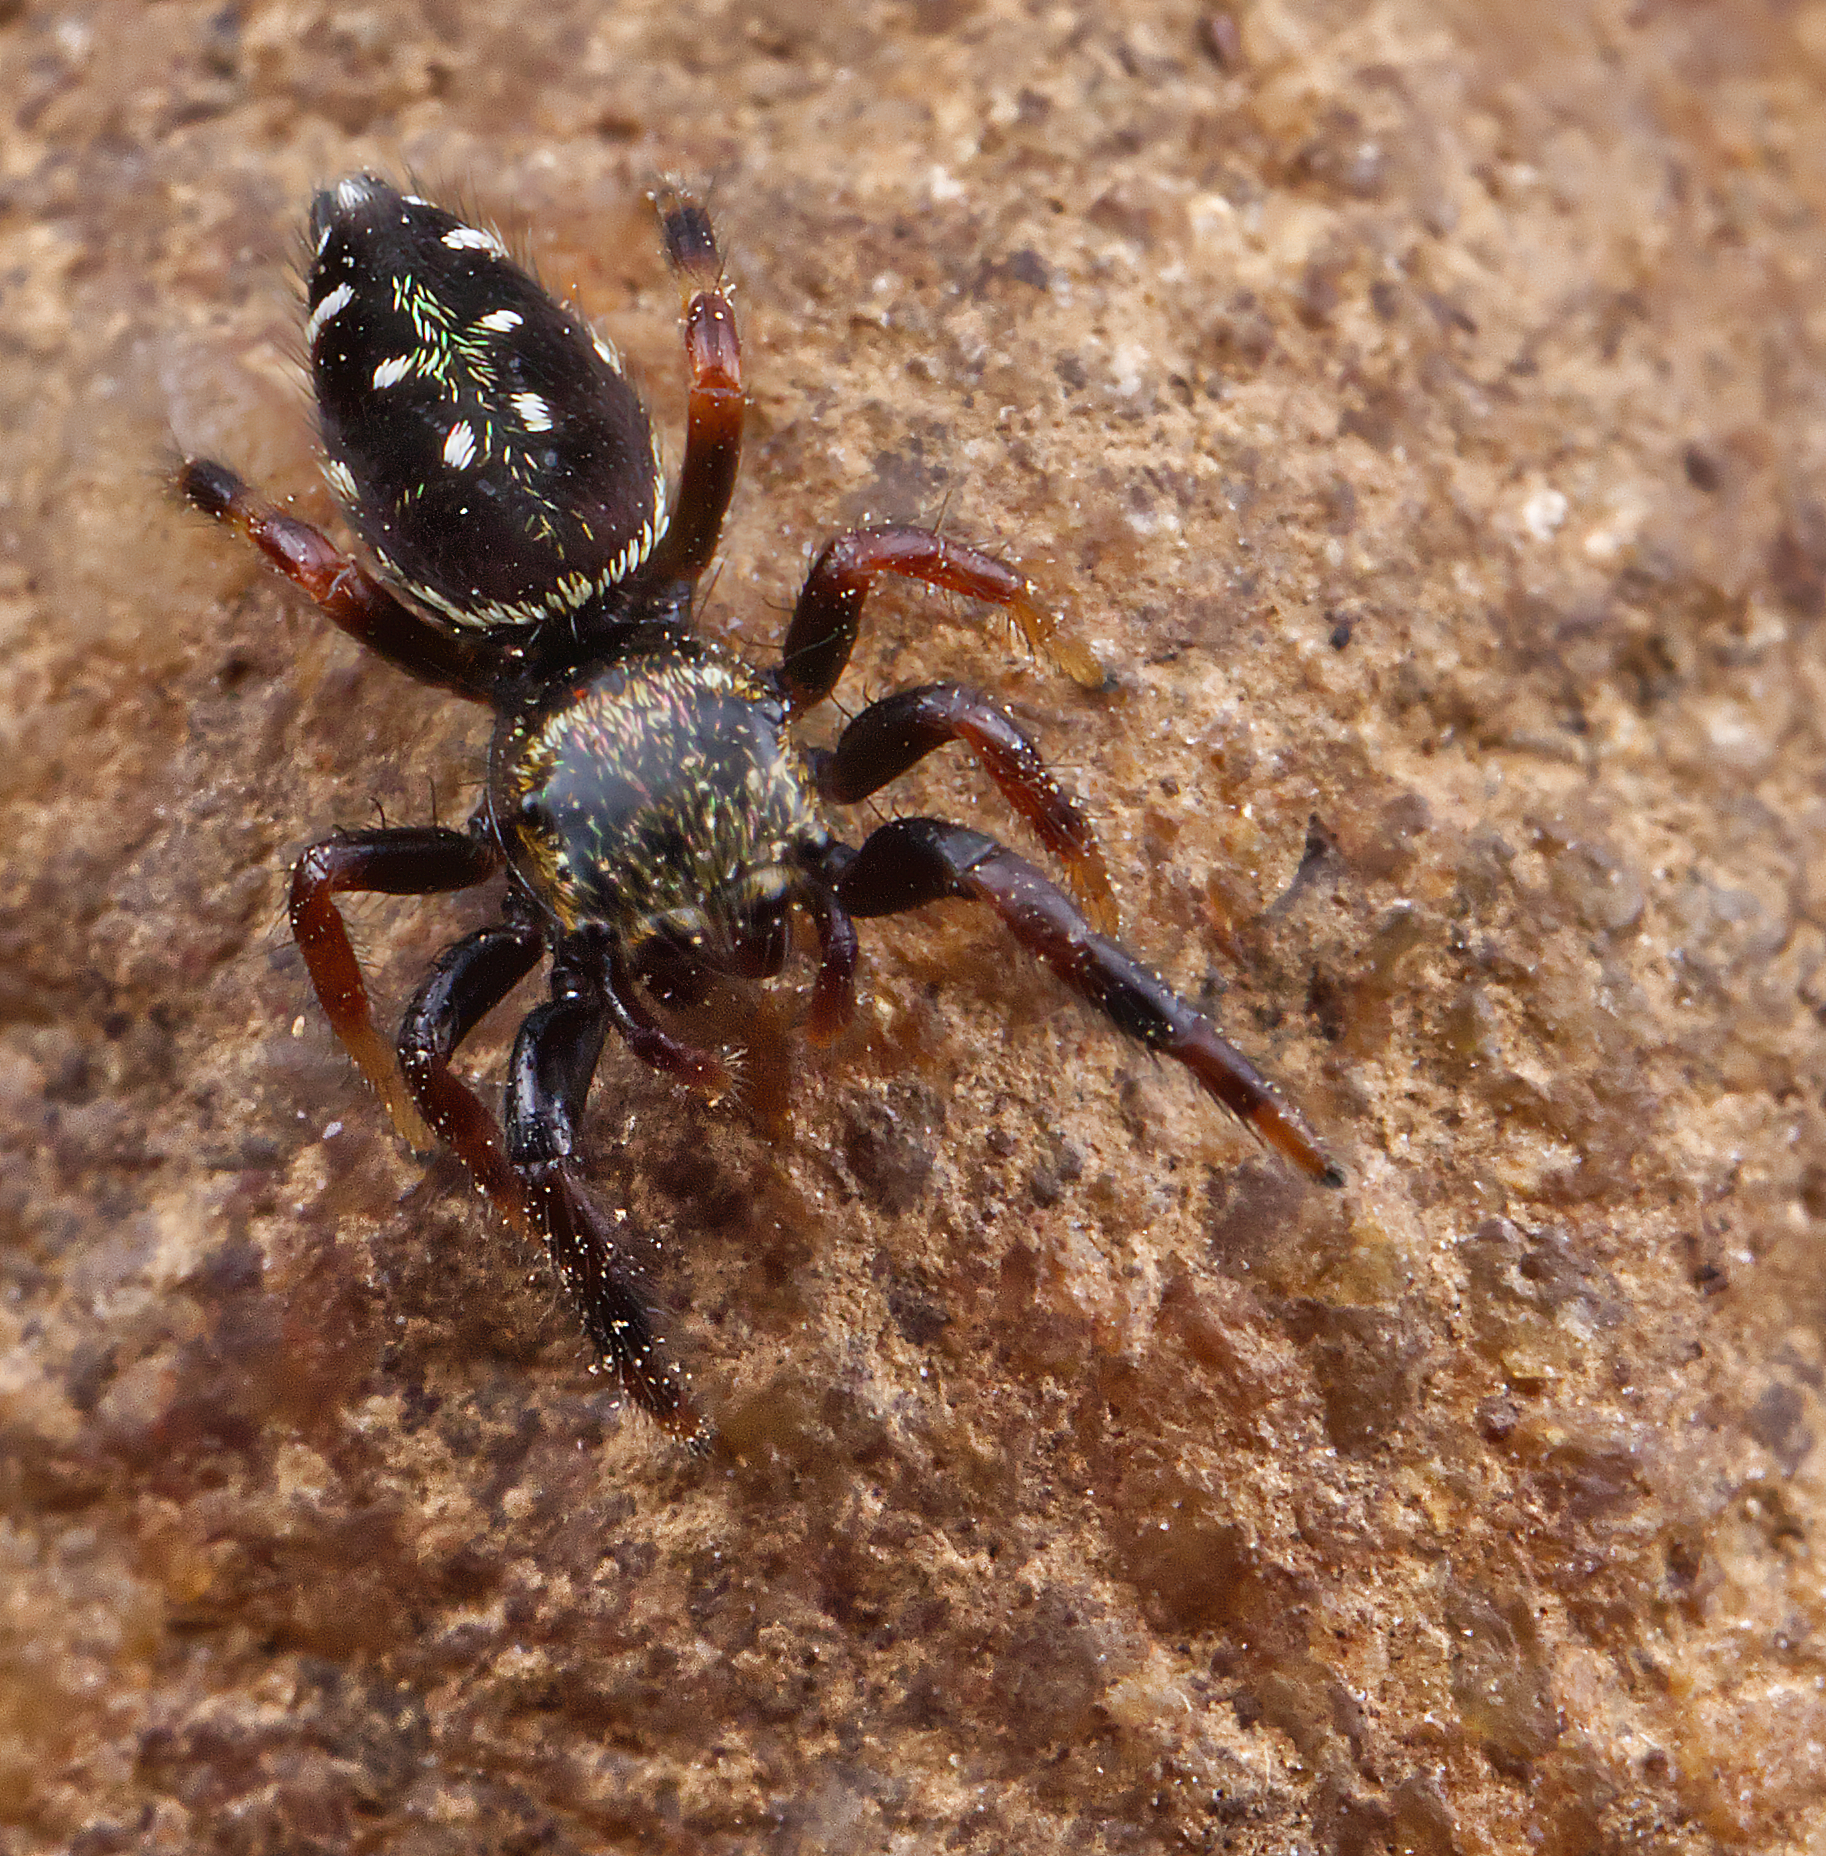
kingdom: Animalia
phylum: Arthropoda
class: Arachnida
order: Araneae
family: Salticidae
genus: Paraphidippus
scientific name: Paraphidippus aurantius
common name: Jumping spiders
